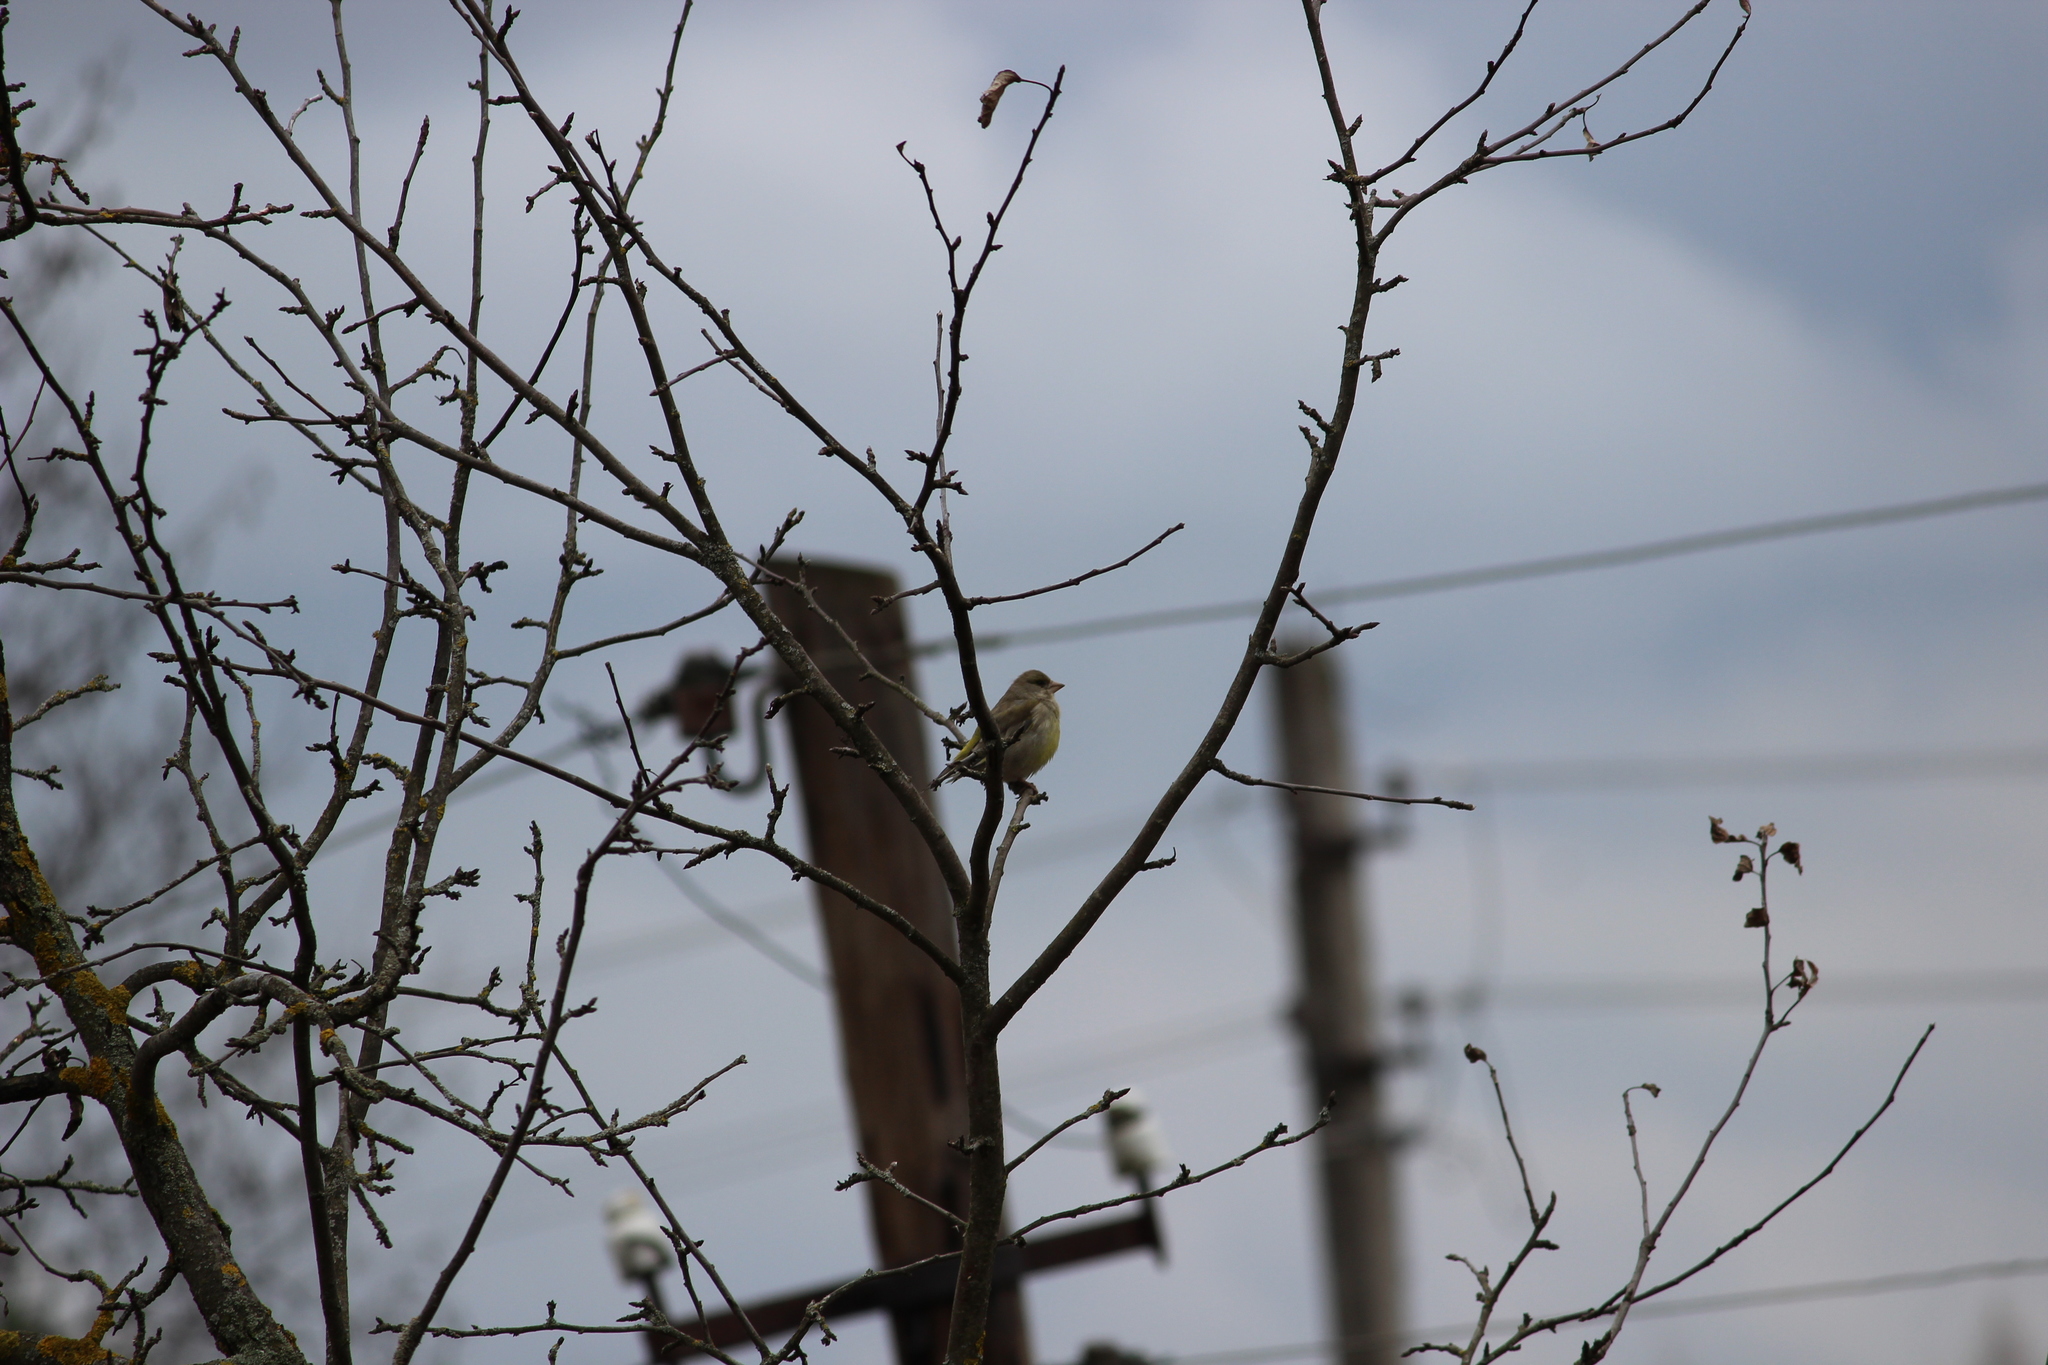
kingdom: Plantae
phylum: Tracheophyta
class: Liliopsida
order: Poales
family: Poaceae
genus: Chloris
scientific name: Chloris chloris
